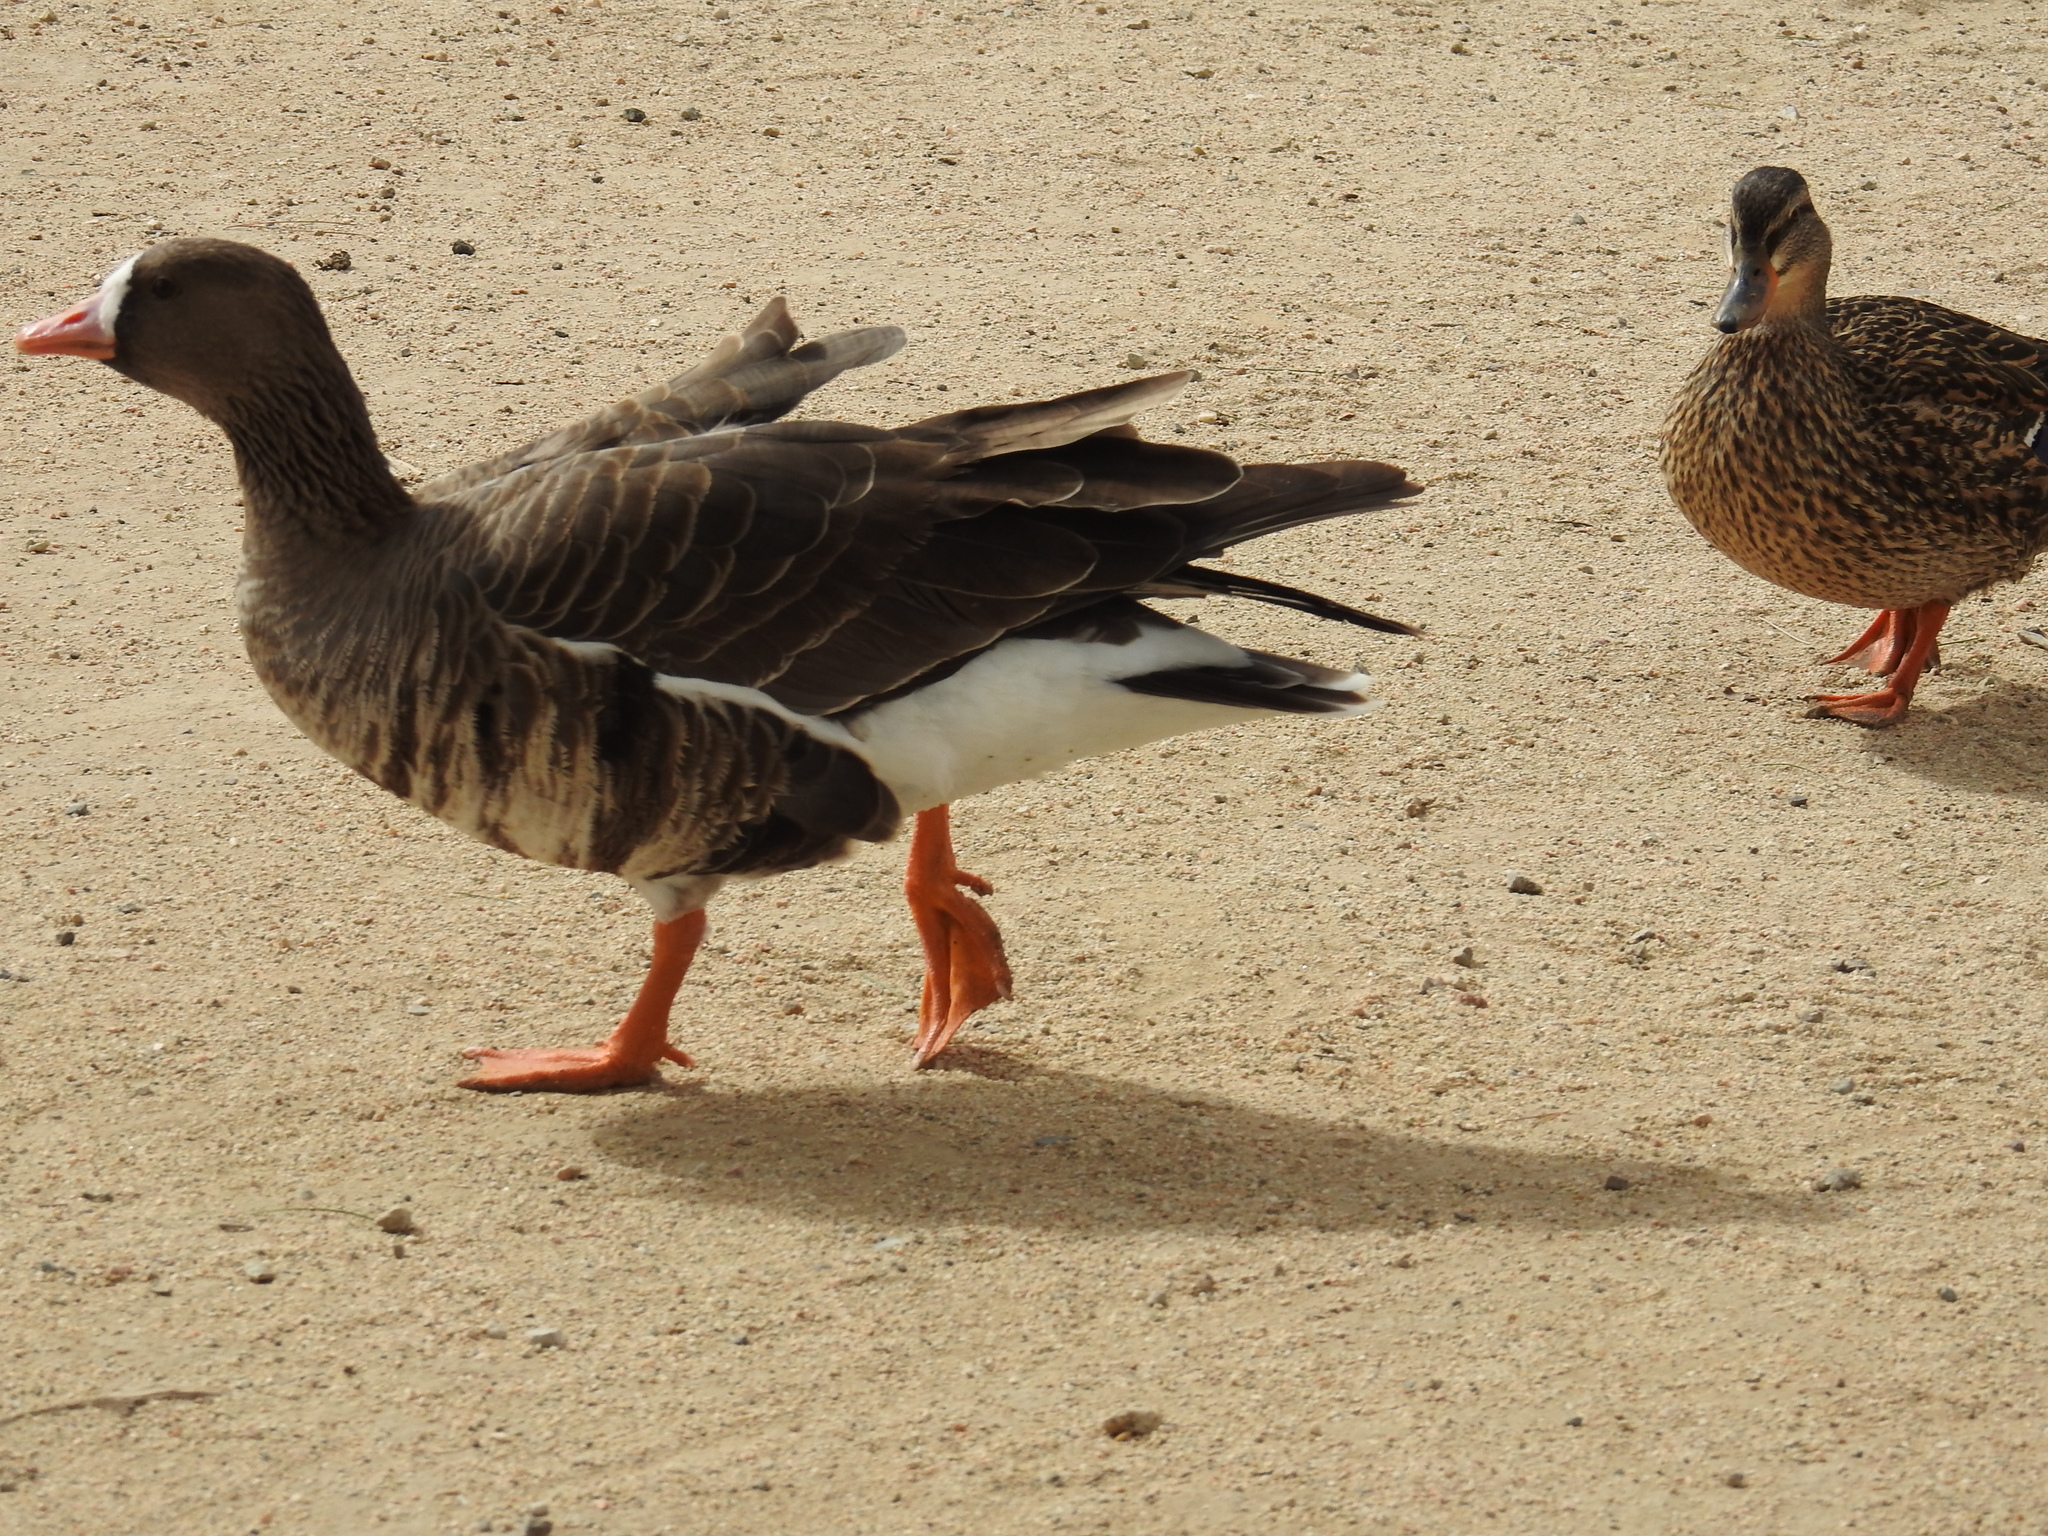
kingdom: Animalia
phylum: Chordata
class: Aves
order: Anseriformes
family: Anatidae
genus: Anser
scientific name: Anser albifrons
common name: Greater white-fronted goose
